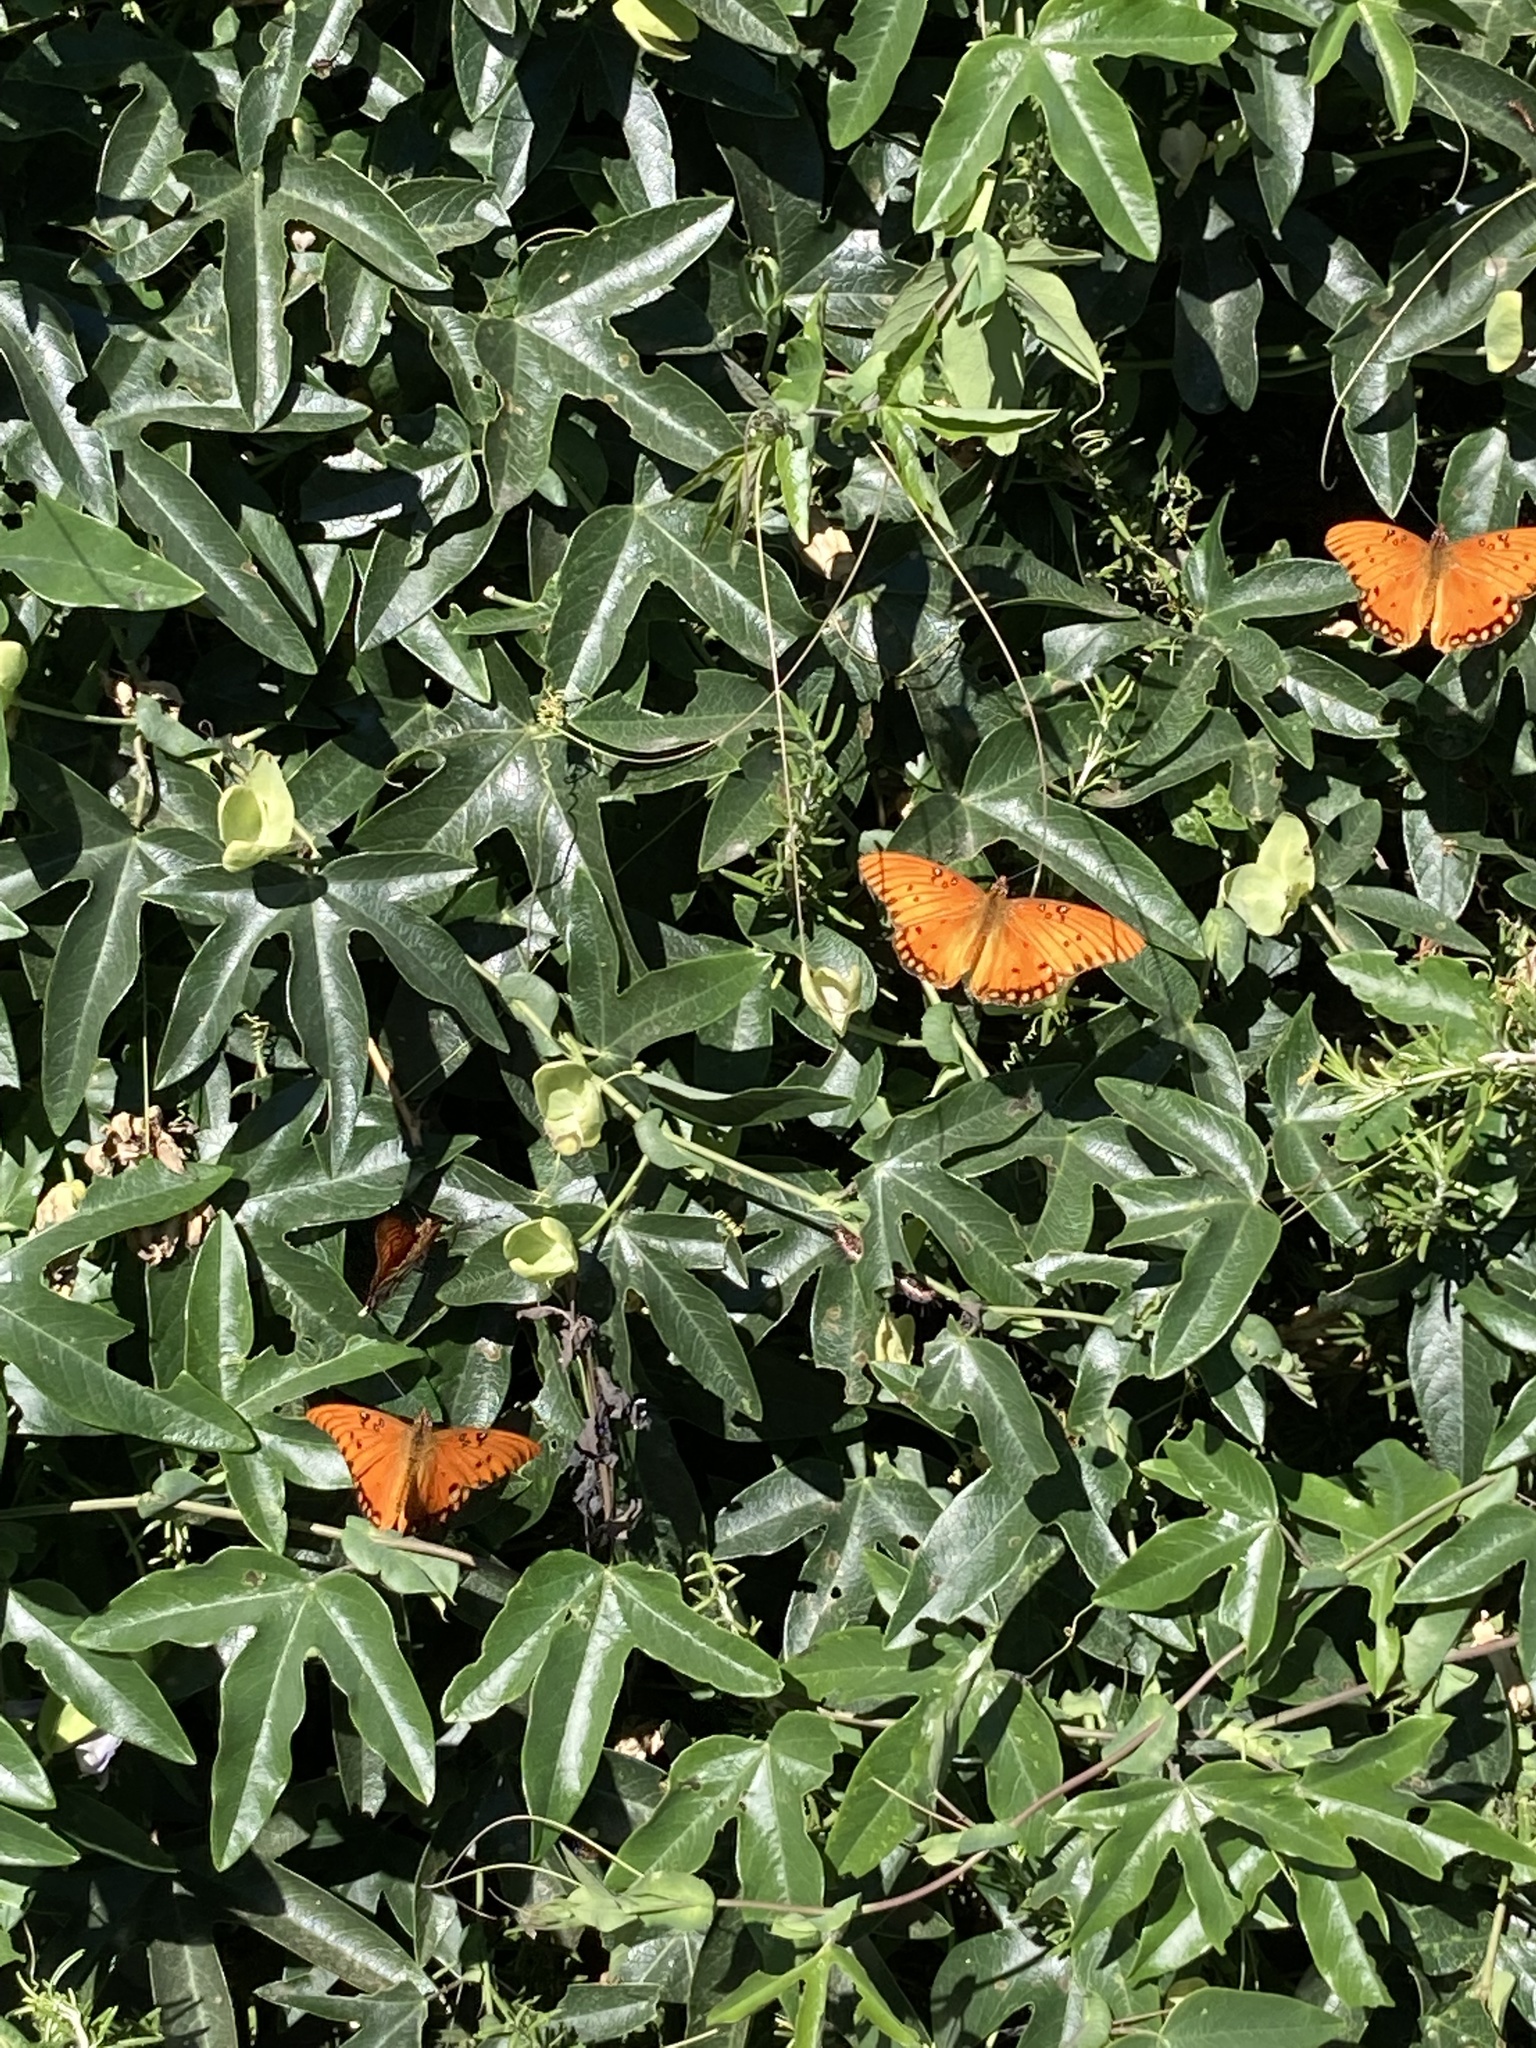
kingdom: Animalia
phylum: Arthropoda
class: Insecta
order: Lepidoptera
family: Nymphalidae
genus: Dione
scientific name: Dione vanillae
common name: Gulf fritillary
